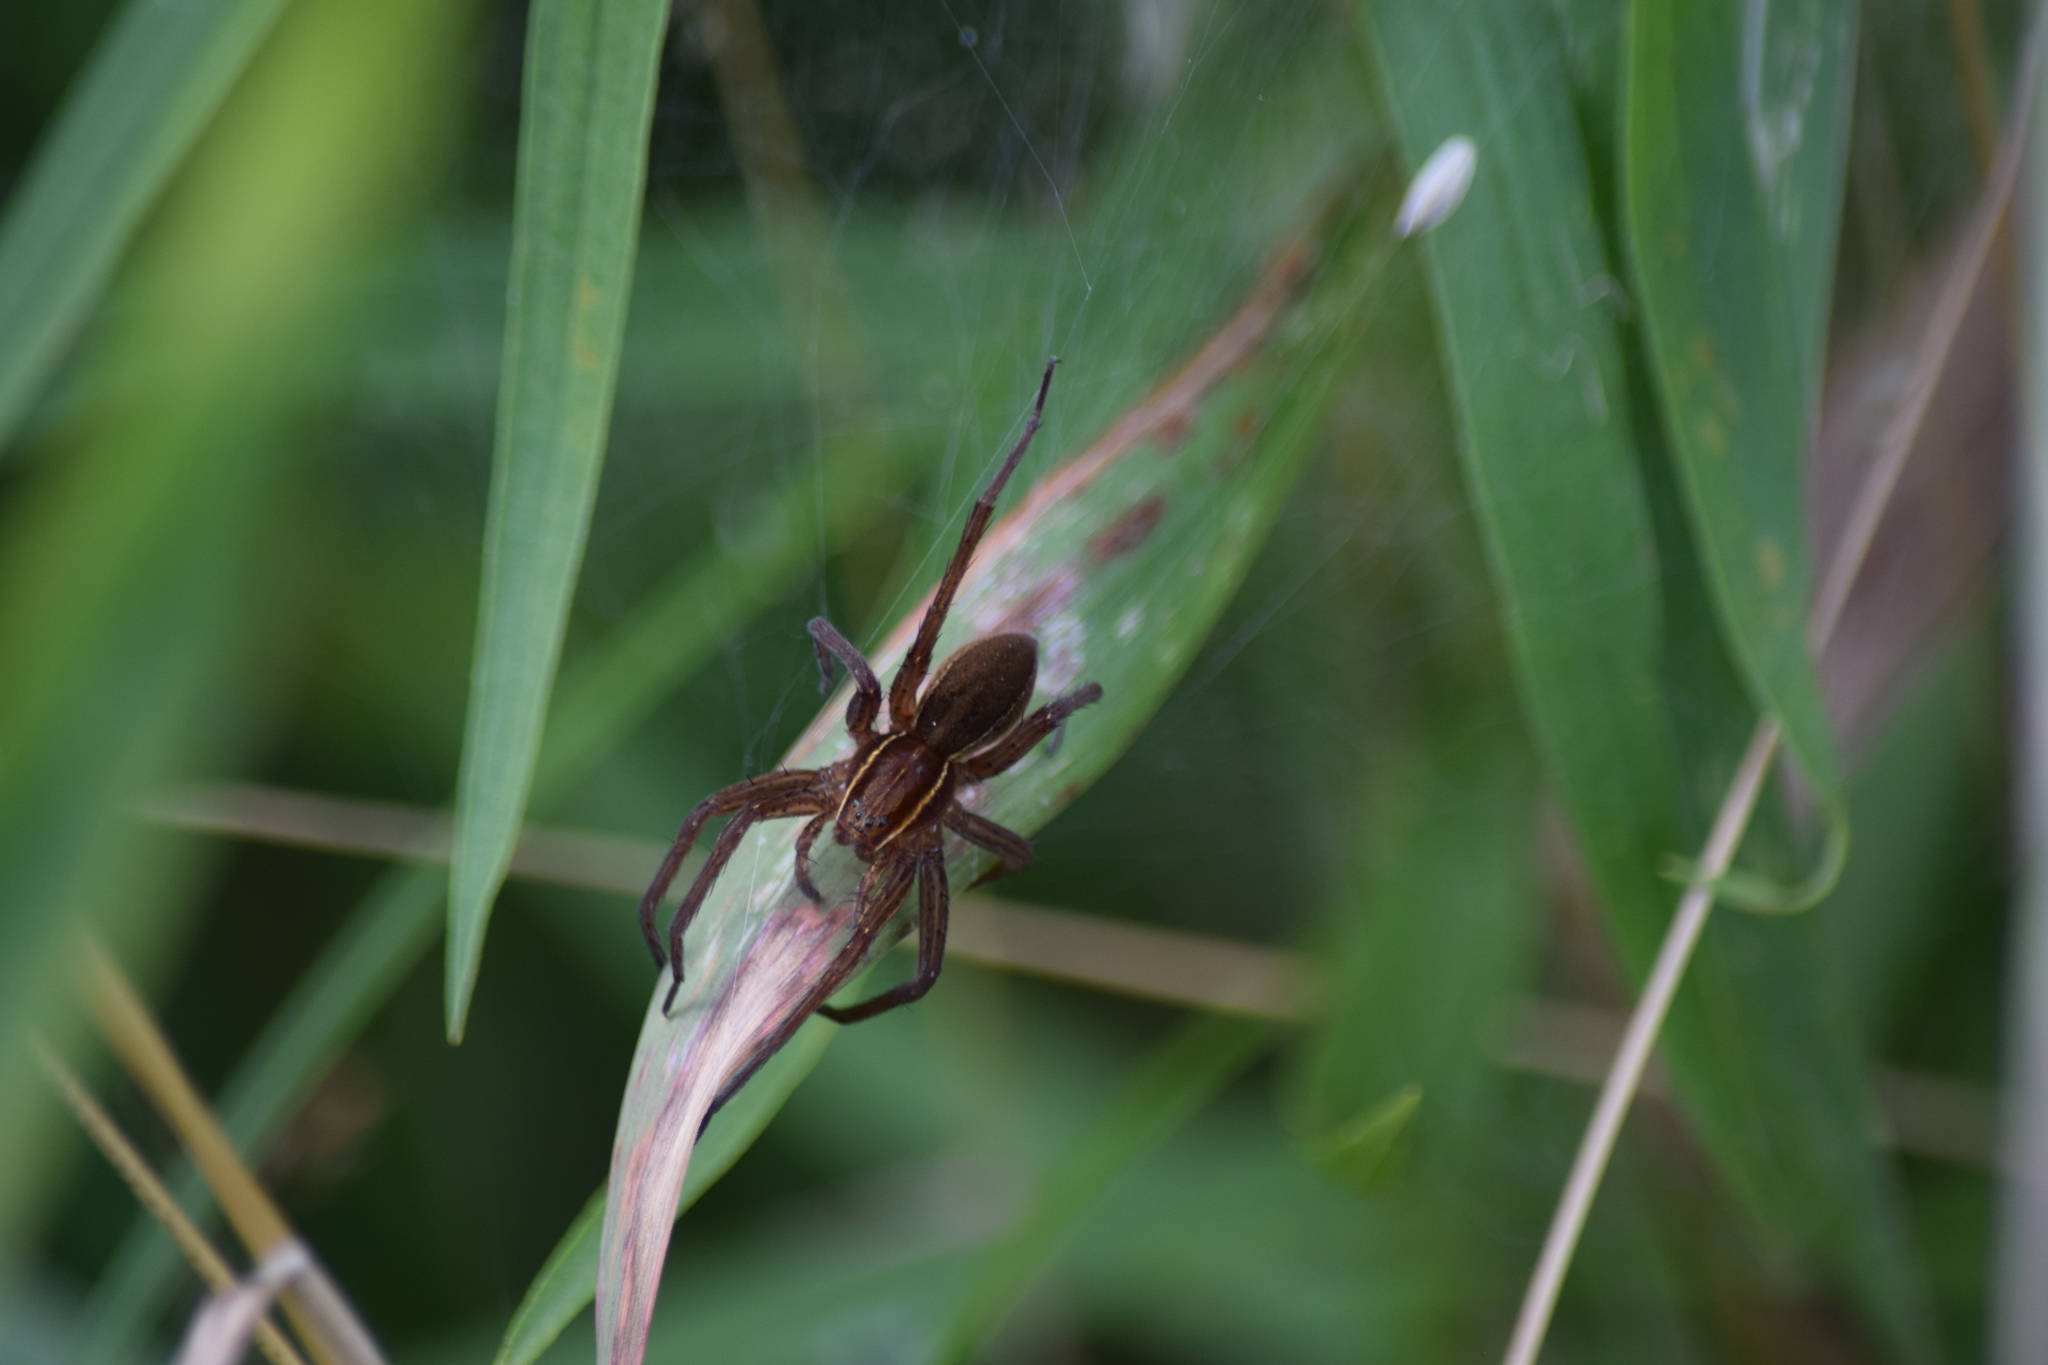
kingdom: Animalia
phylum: Arthropoda
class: Arachnida
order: Araneae
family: Pisauridae
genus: Dolomedes
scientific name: Dolomedes striatus
